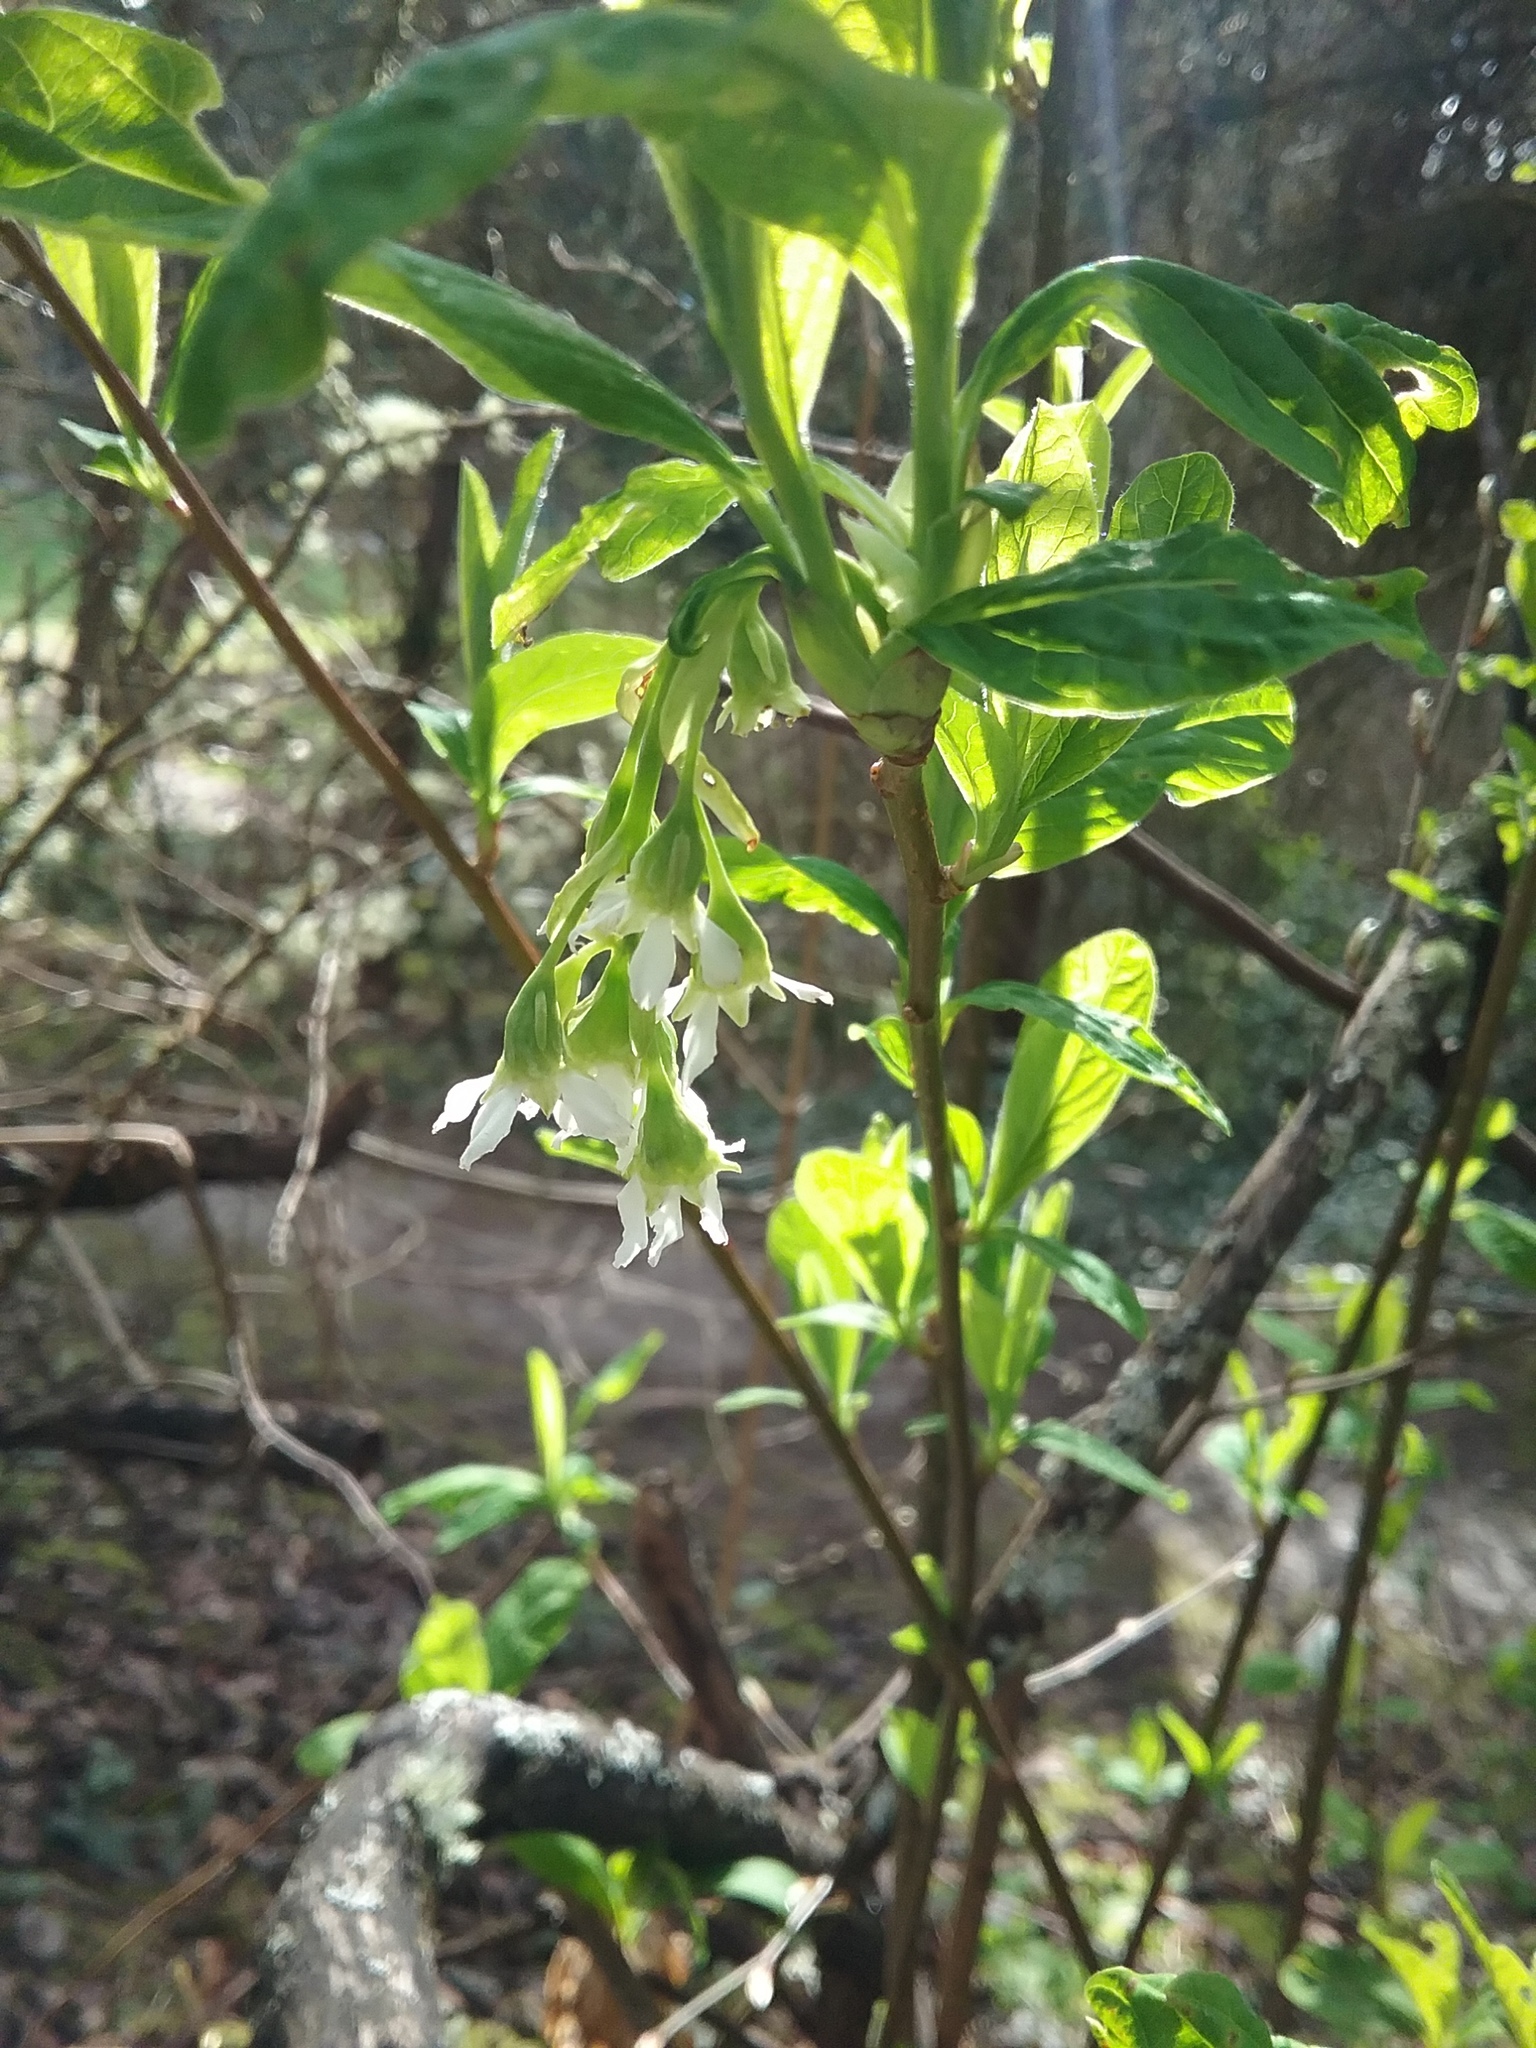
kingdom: Plantae
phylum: Tracheophyta
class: Magnoliopsida
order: Rosales
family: Rosaceae
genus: Oemleria
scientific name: Oemleria cerasiformis
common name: Osoberry
